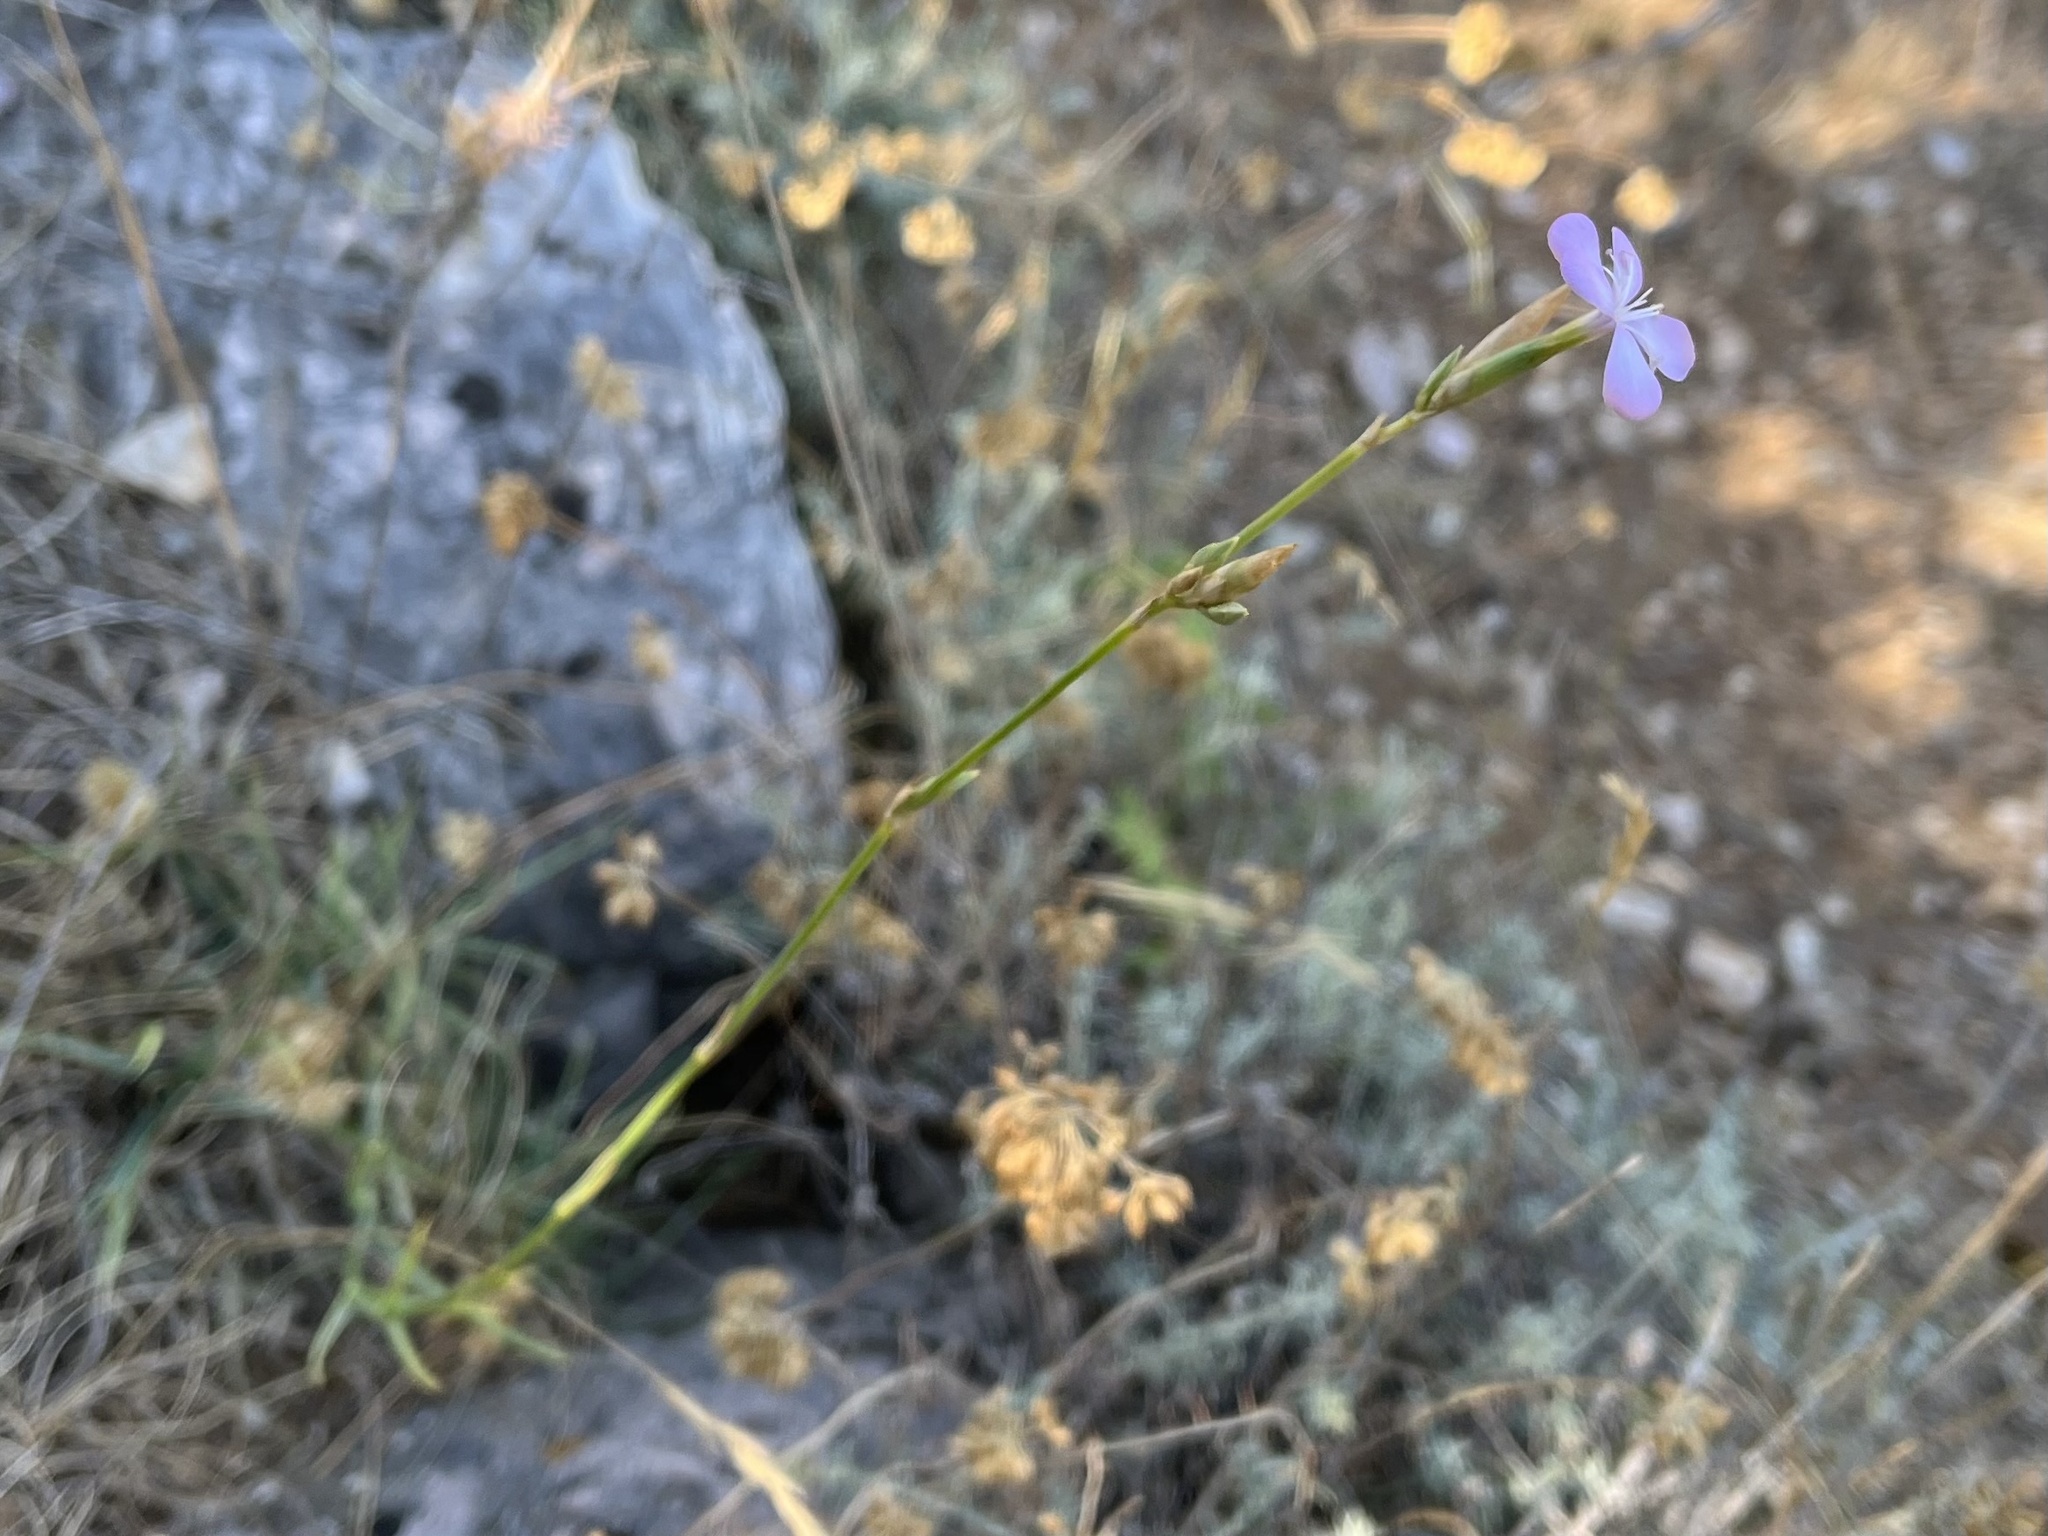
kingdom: Plantae
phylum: Tracheophyta
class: Magnoliopsida
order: Caryophyllales
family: Caryophyllaceae
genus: Dianthus
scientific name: Dianthus ciliatus
